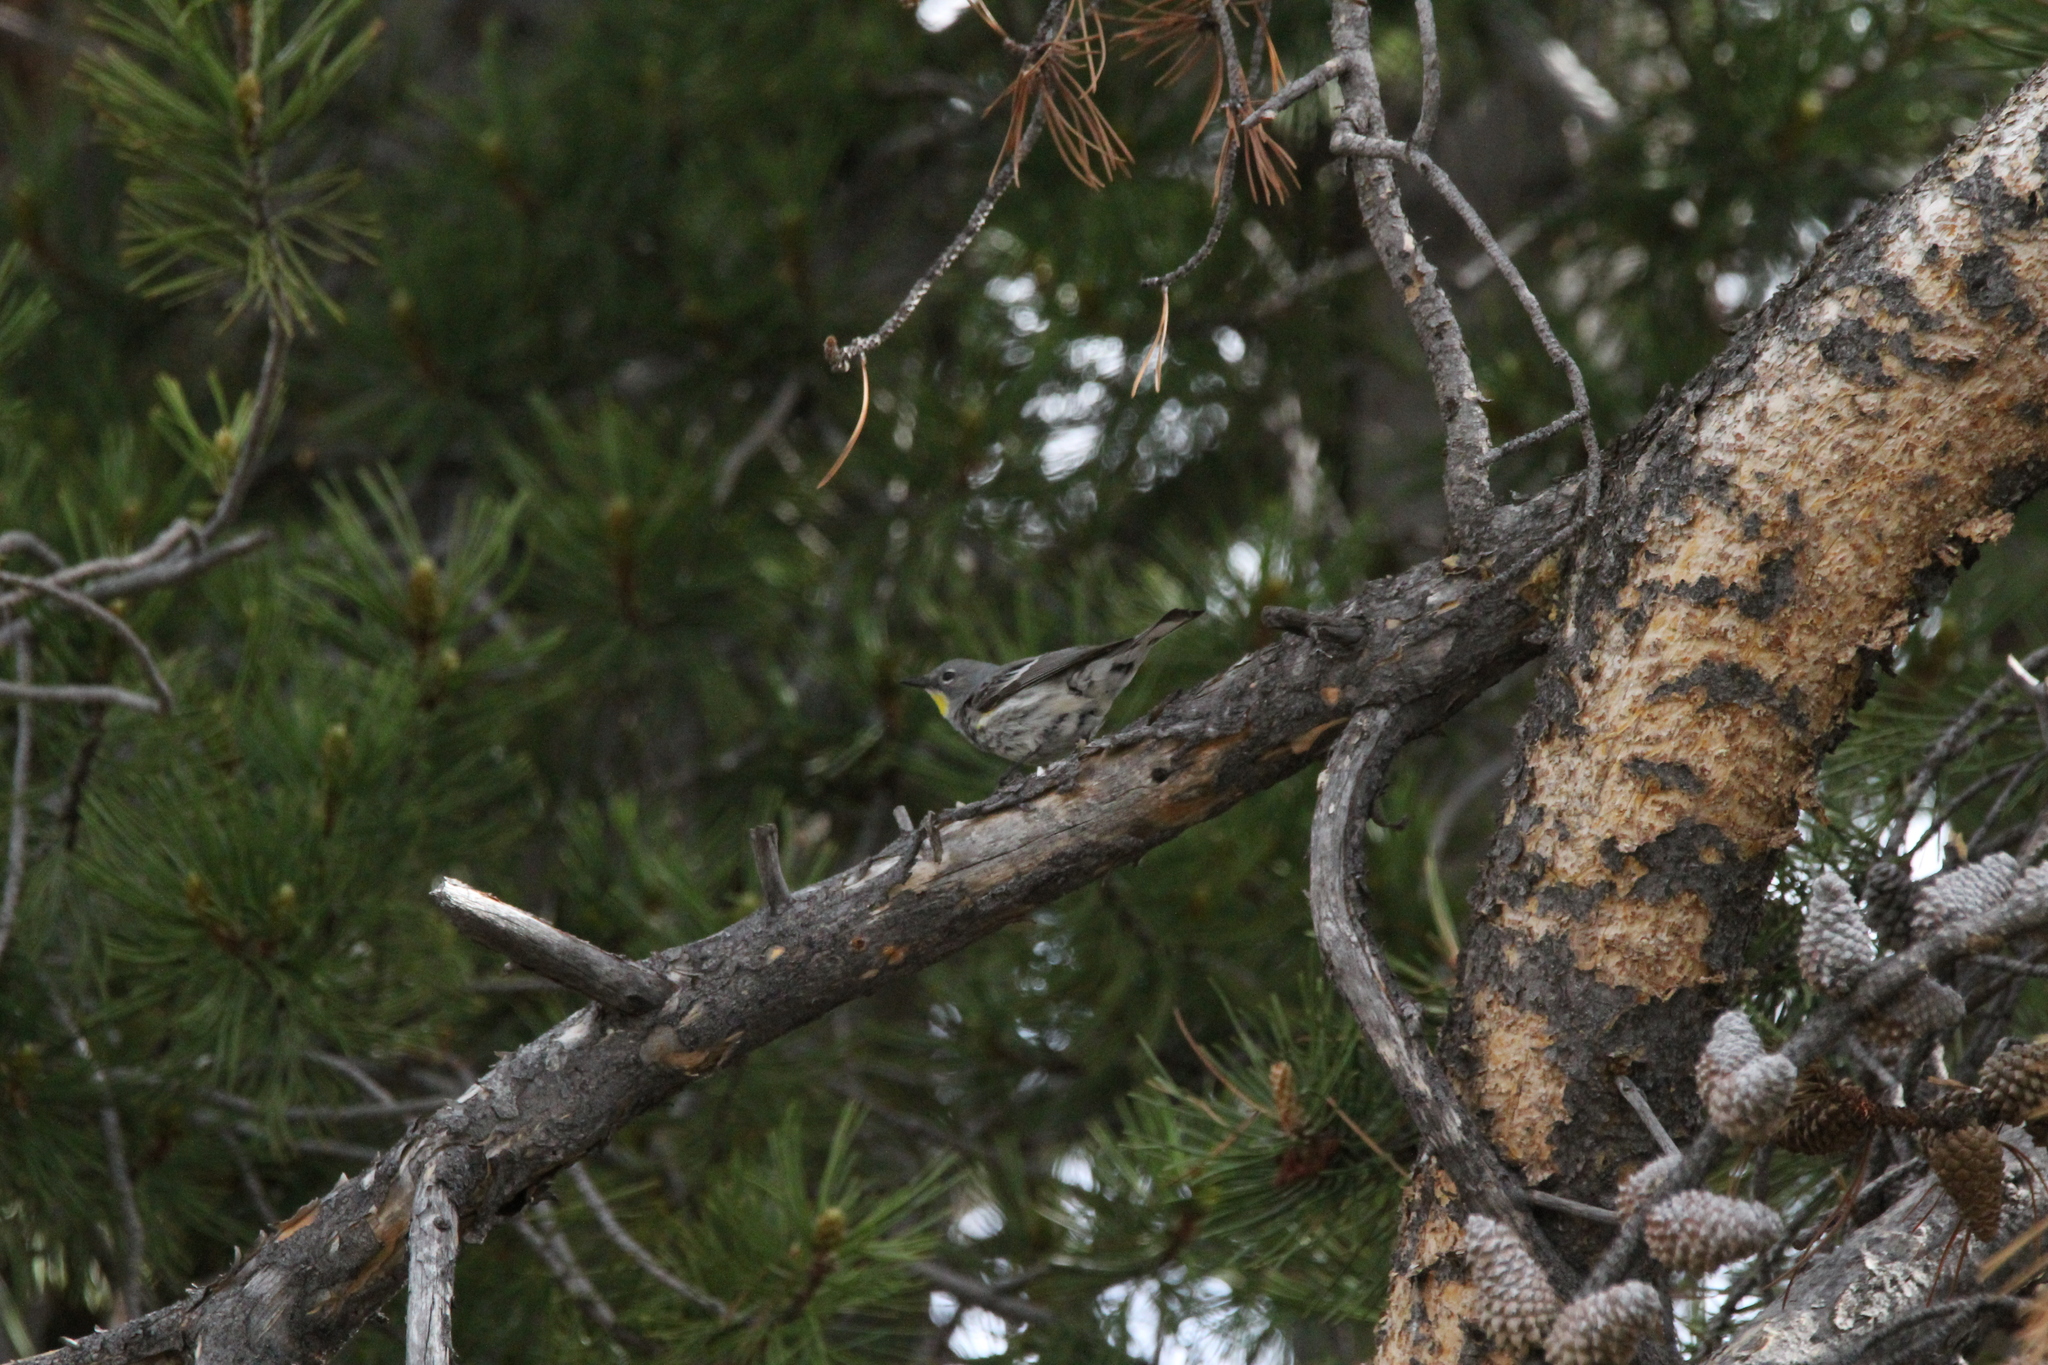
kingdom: Animalia
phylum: Chordata
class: Aves
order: Passeriformes
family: Parulidae
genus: Setophaga
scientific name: Setophaga auduboni
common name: Audubon's warbler
